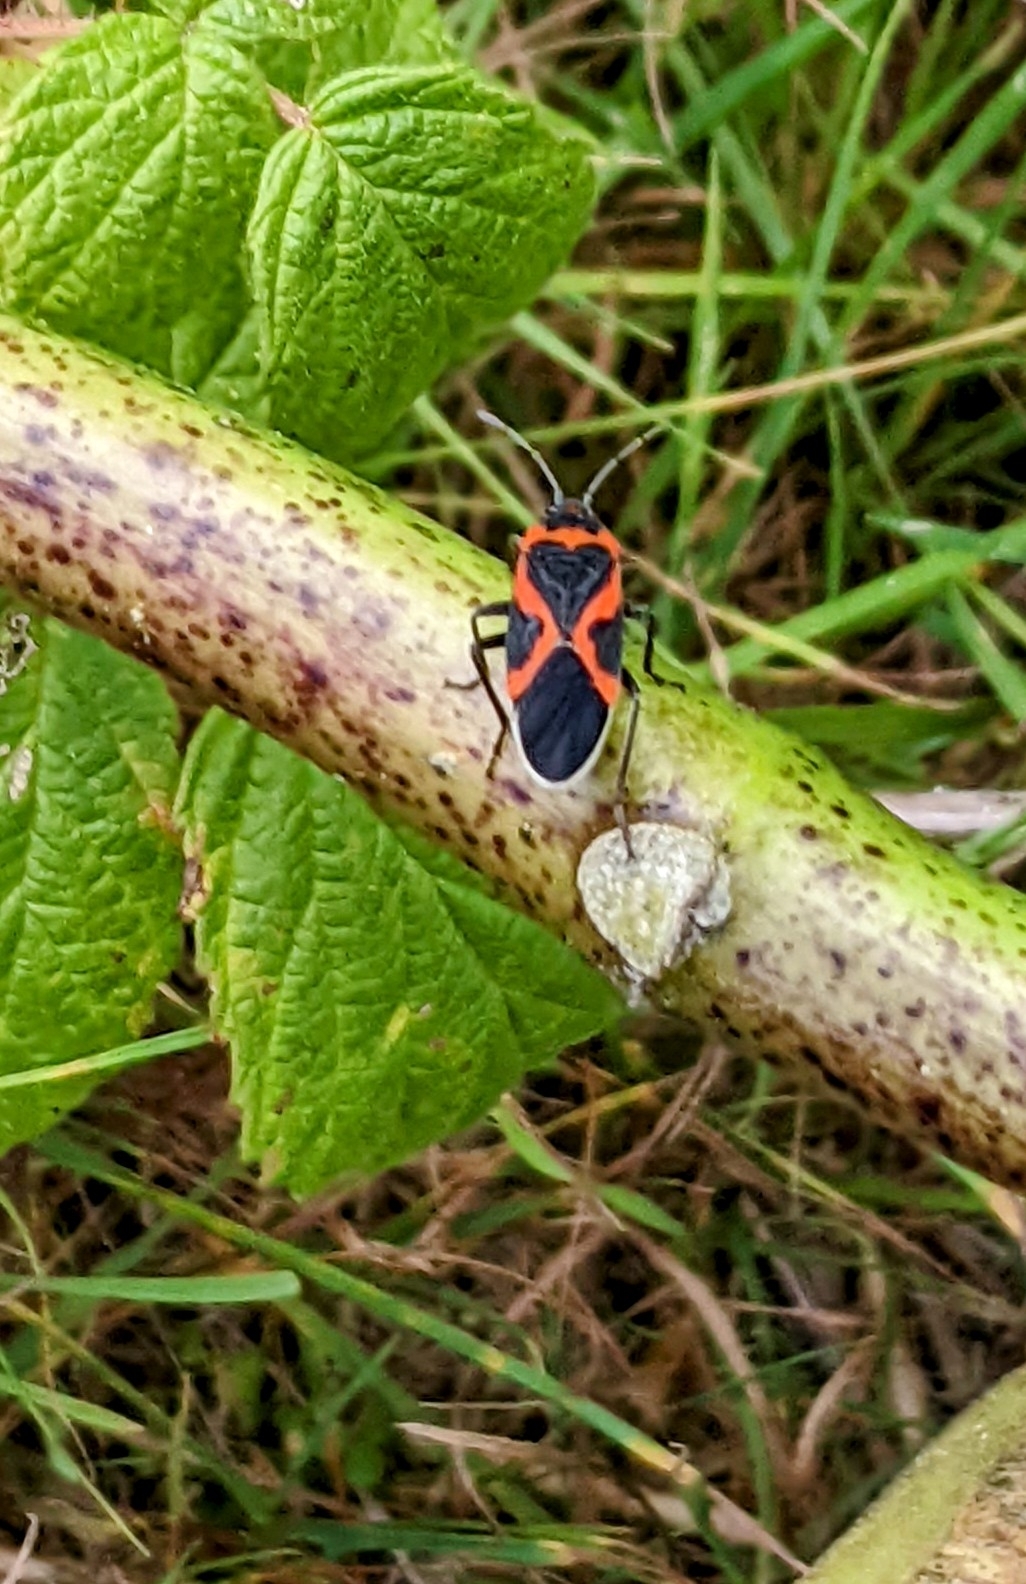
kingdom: Animalia
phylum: Arthropoda
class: Insecta
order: Hemiptera
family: Lygaeidae
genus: Lygaeus
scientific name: Lygaeus kalmii
